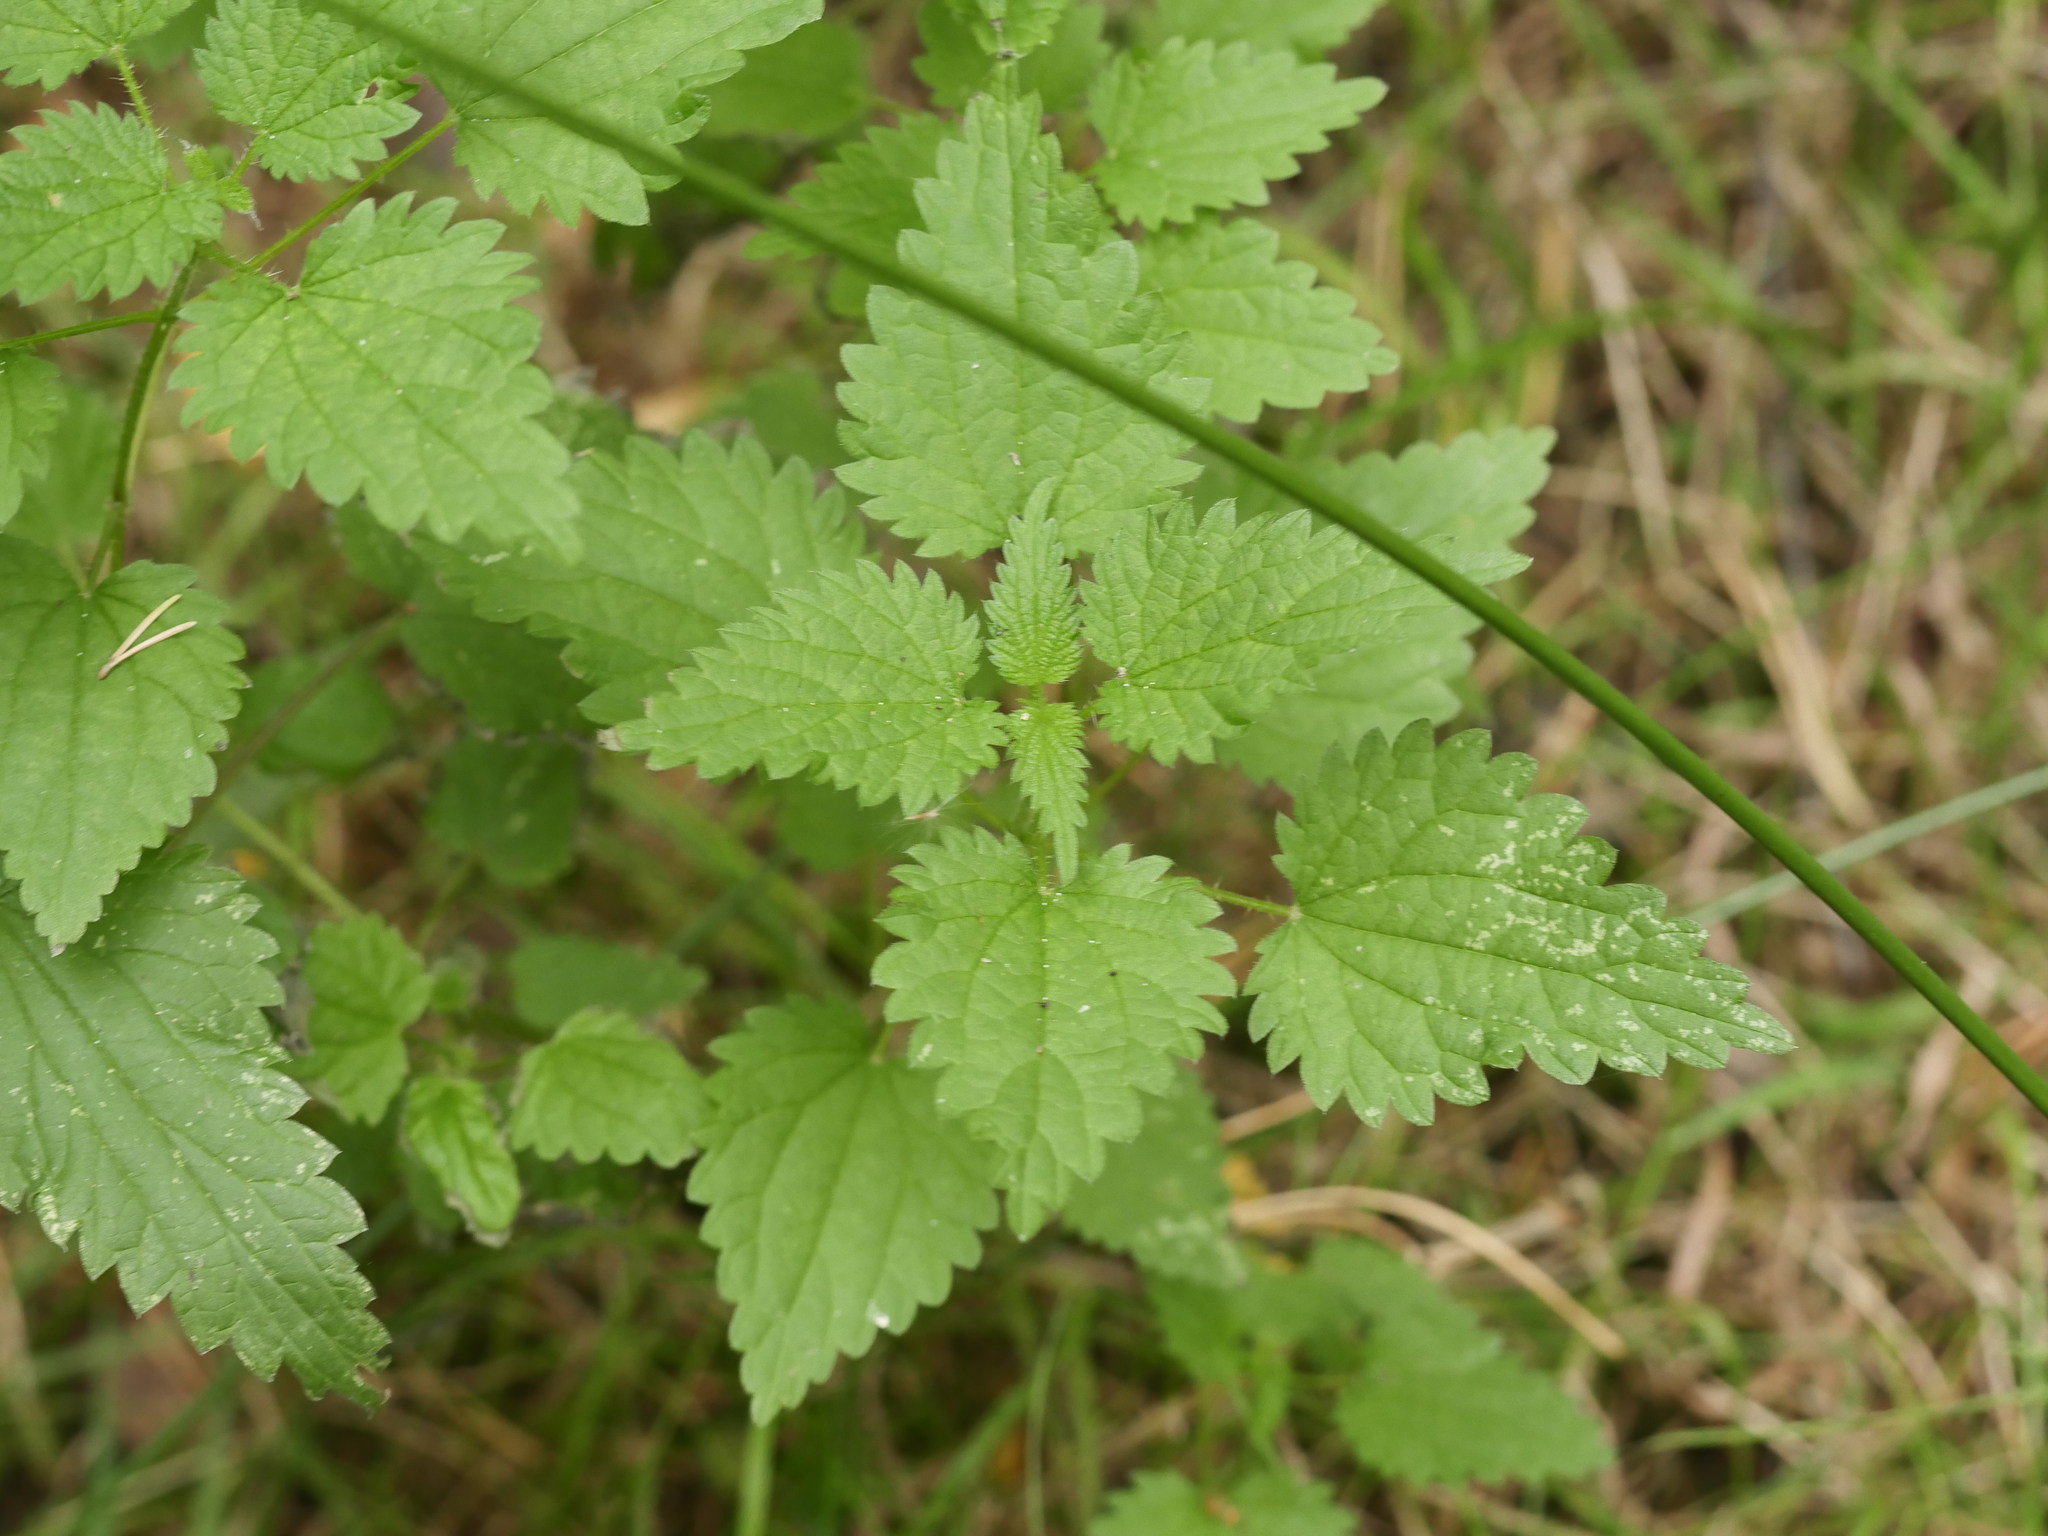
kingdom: Plantae
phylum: Tracheophyta
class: Magnoliopsida
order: Rosales
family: Urticaceae
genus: Urtica
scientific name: Urtica dioica
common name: Common nettle
